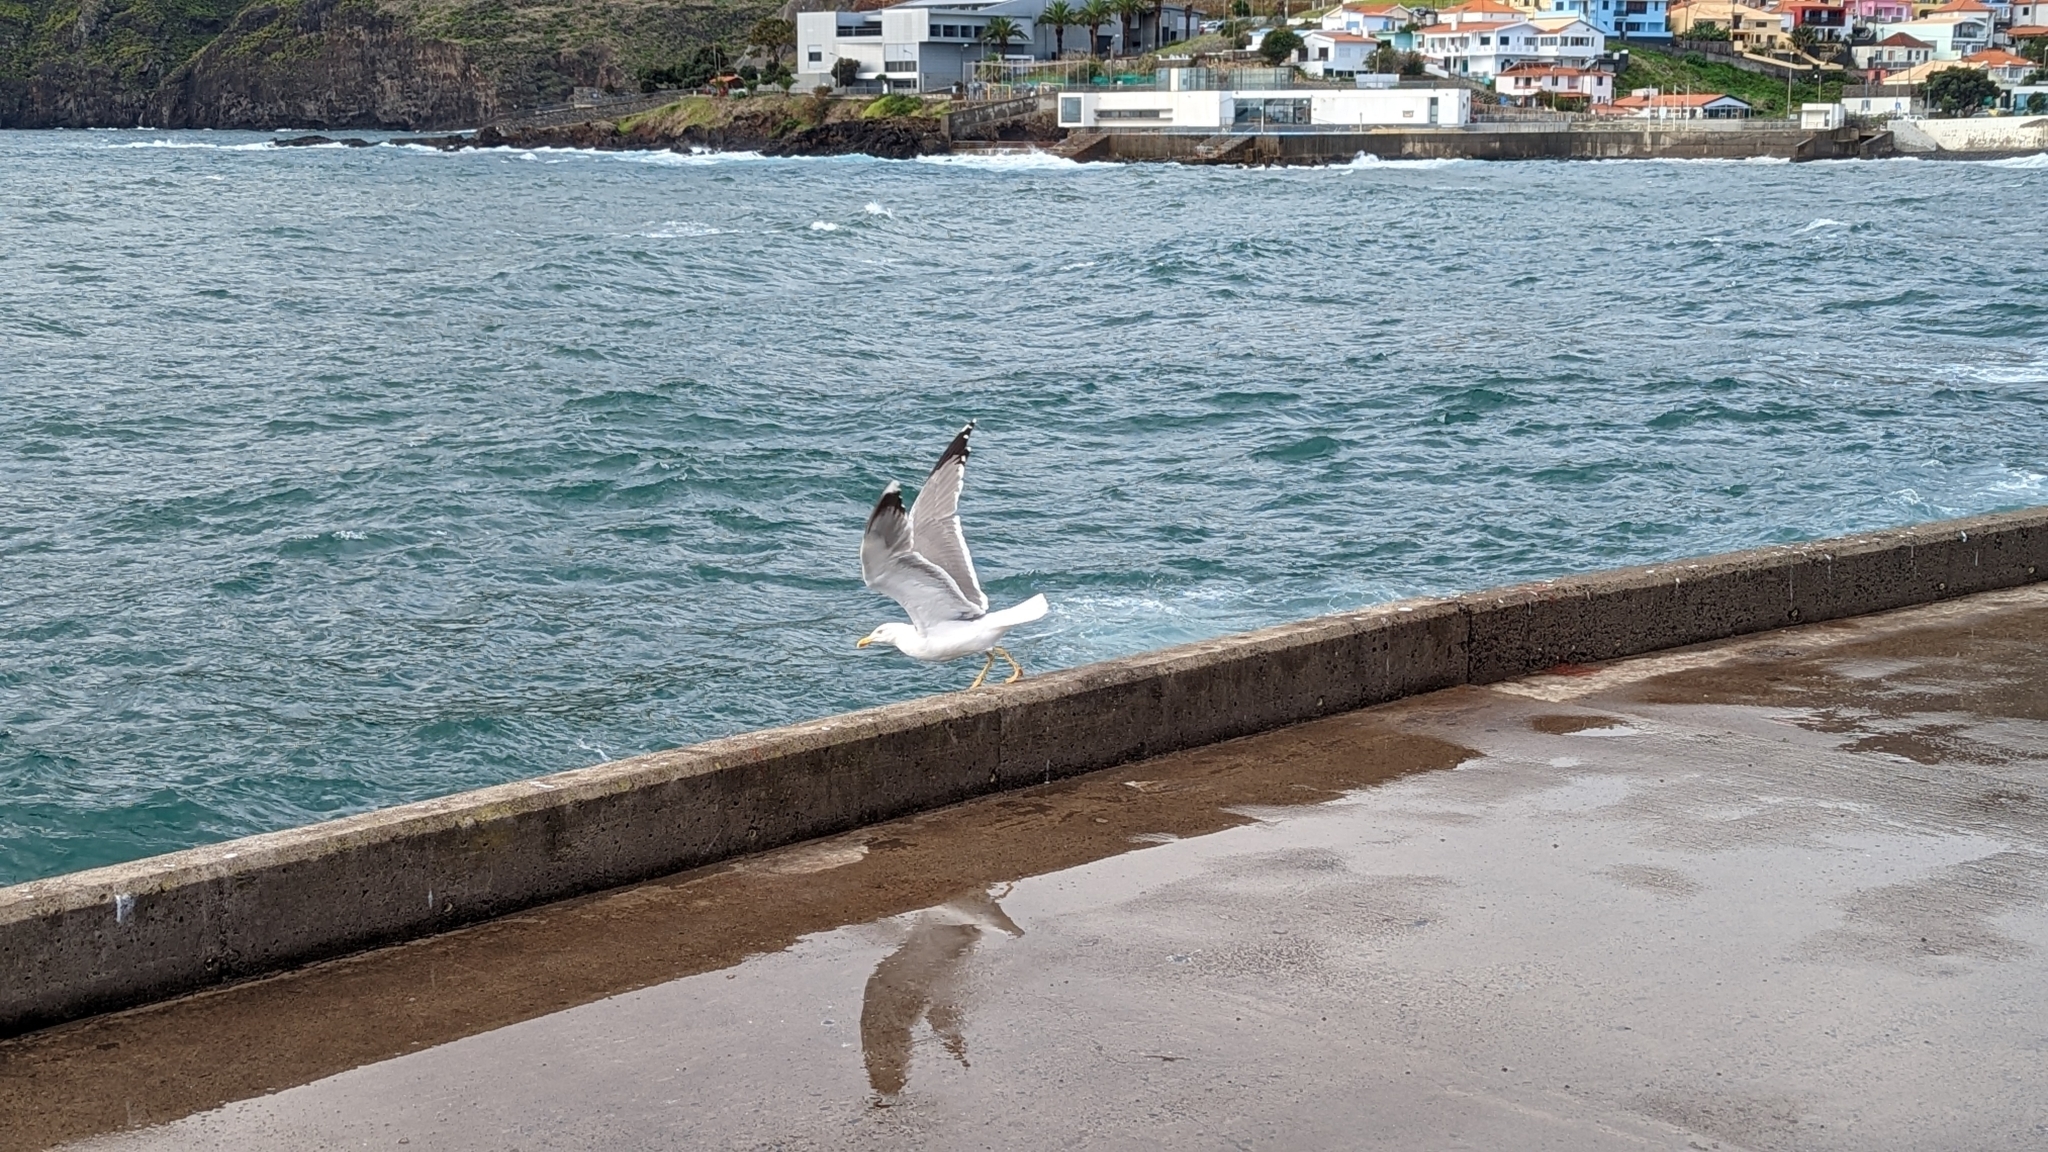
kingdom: Animalia
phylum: Chordata
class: Aves
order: Charadriiformes
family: Laridae
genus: Larus
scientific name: Larus michahellis
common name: Yellow-legged gull
